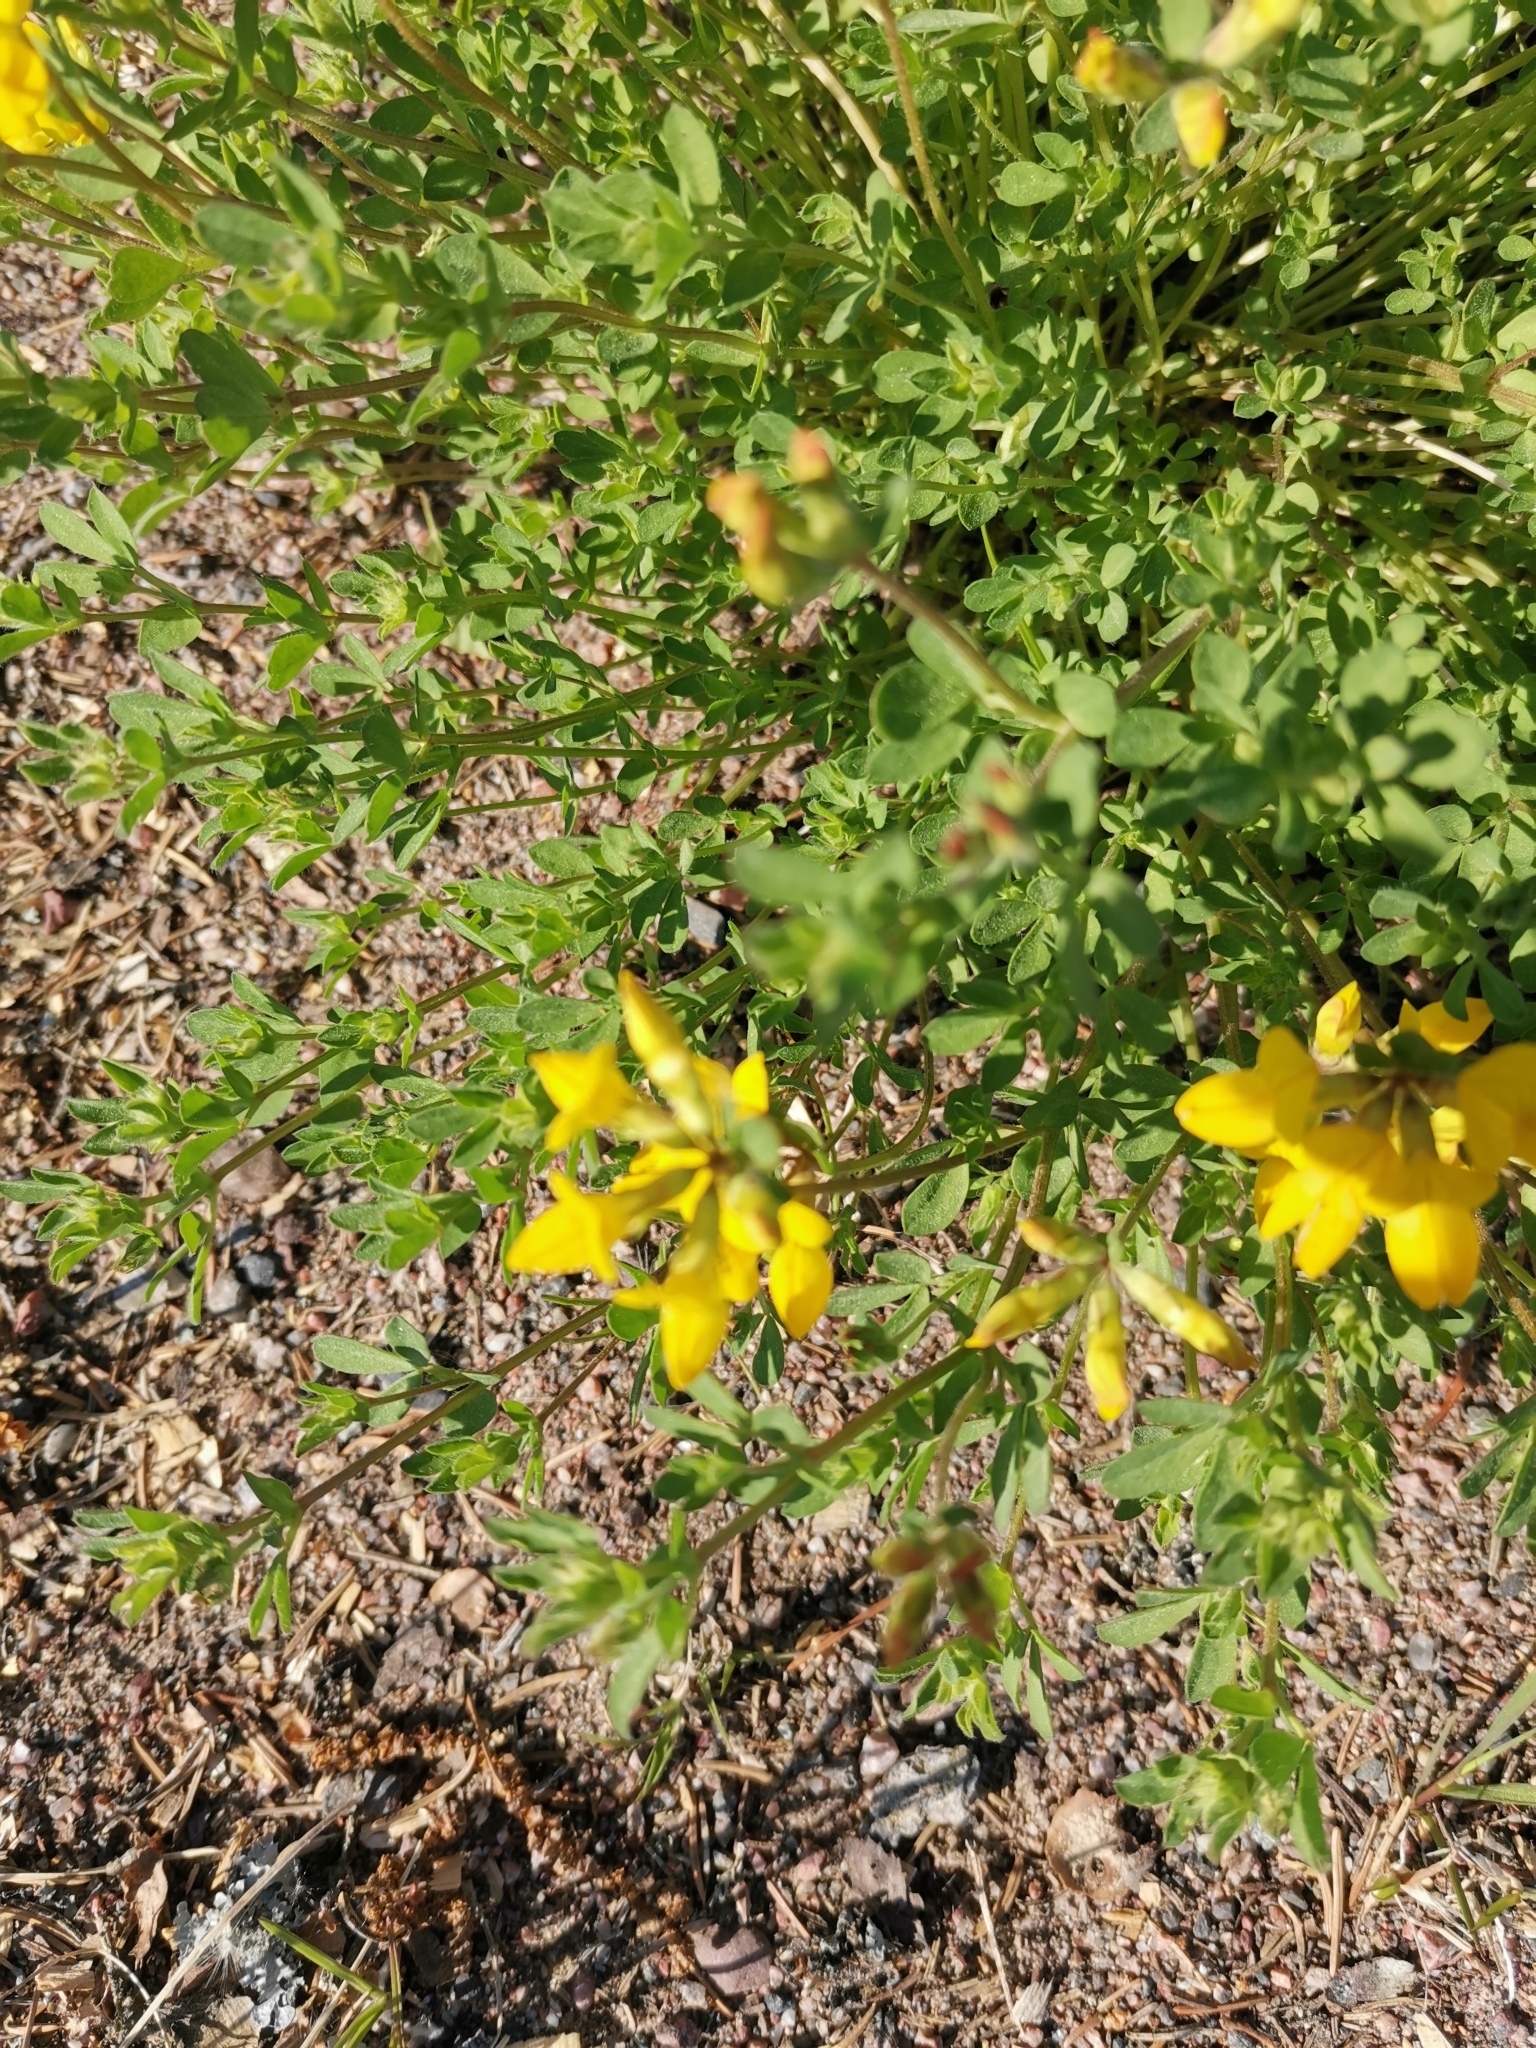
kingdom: Plantae
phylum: Tracheophyta
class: Magnoliopsida
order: Fabales
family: Fabaceae
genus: Lotus
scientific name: Lotus corniculatus
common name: Common bird's-foot-trefoil
